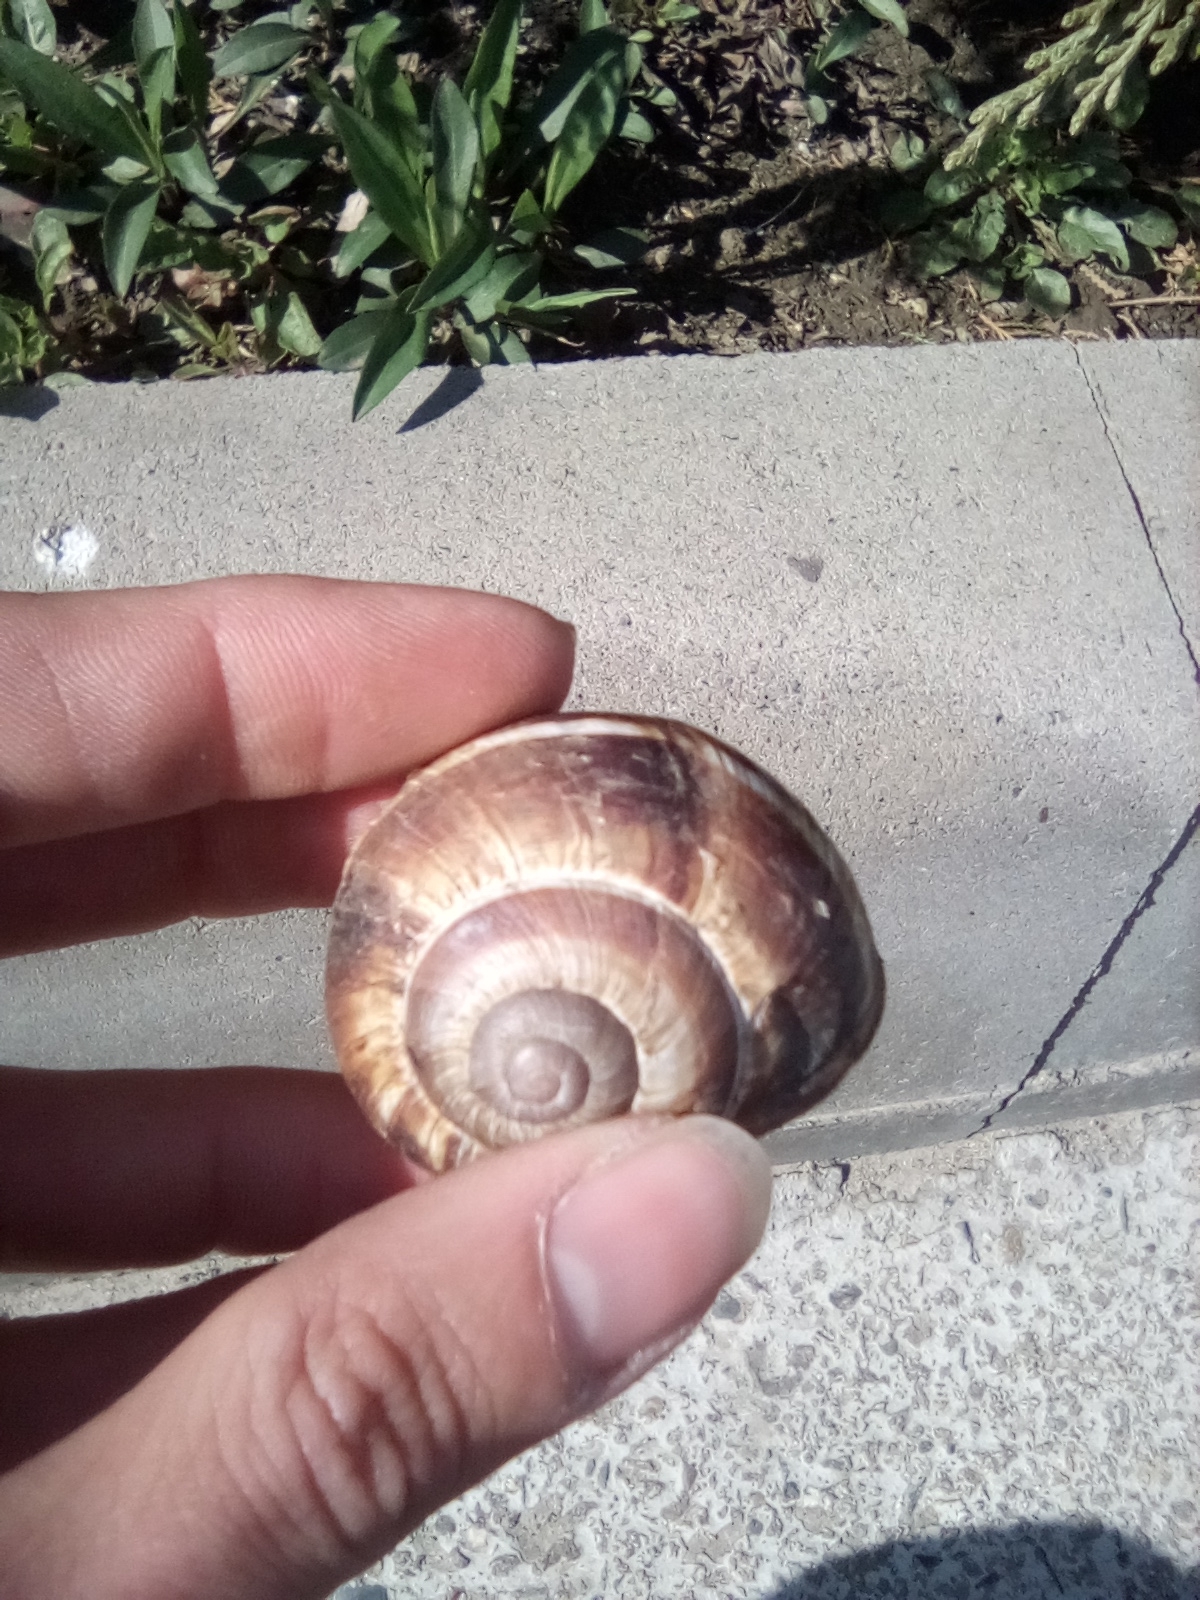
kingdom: Animalia
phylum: Mollusca
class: Gastropoda
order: Stylommatophora
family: Helicidae
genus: Helix
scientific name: Helix lucorum
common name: Turkish snail
